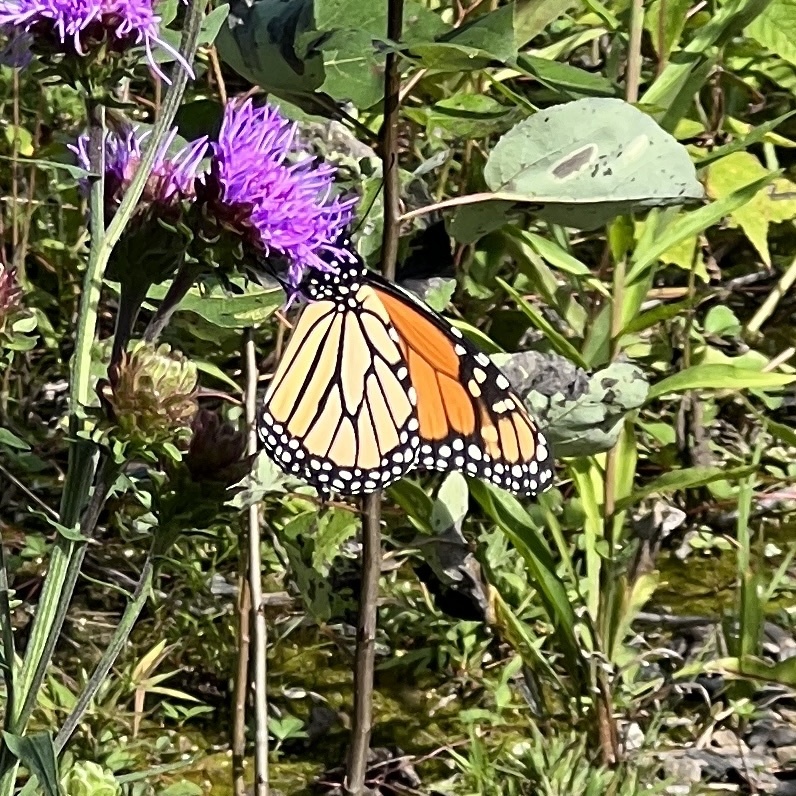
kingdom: Animalia
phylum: Arthropoda
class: Insecta
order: Lepidoptera
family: Nymphalidae
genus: Danaus
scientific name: Danaus plexippus
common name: Monarch
